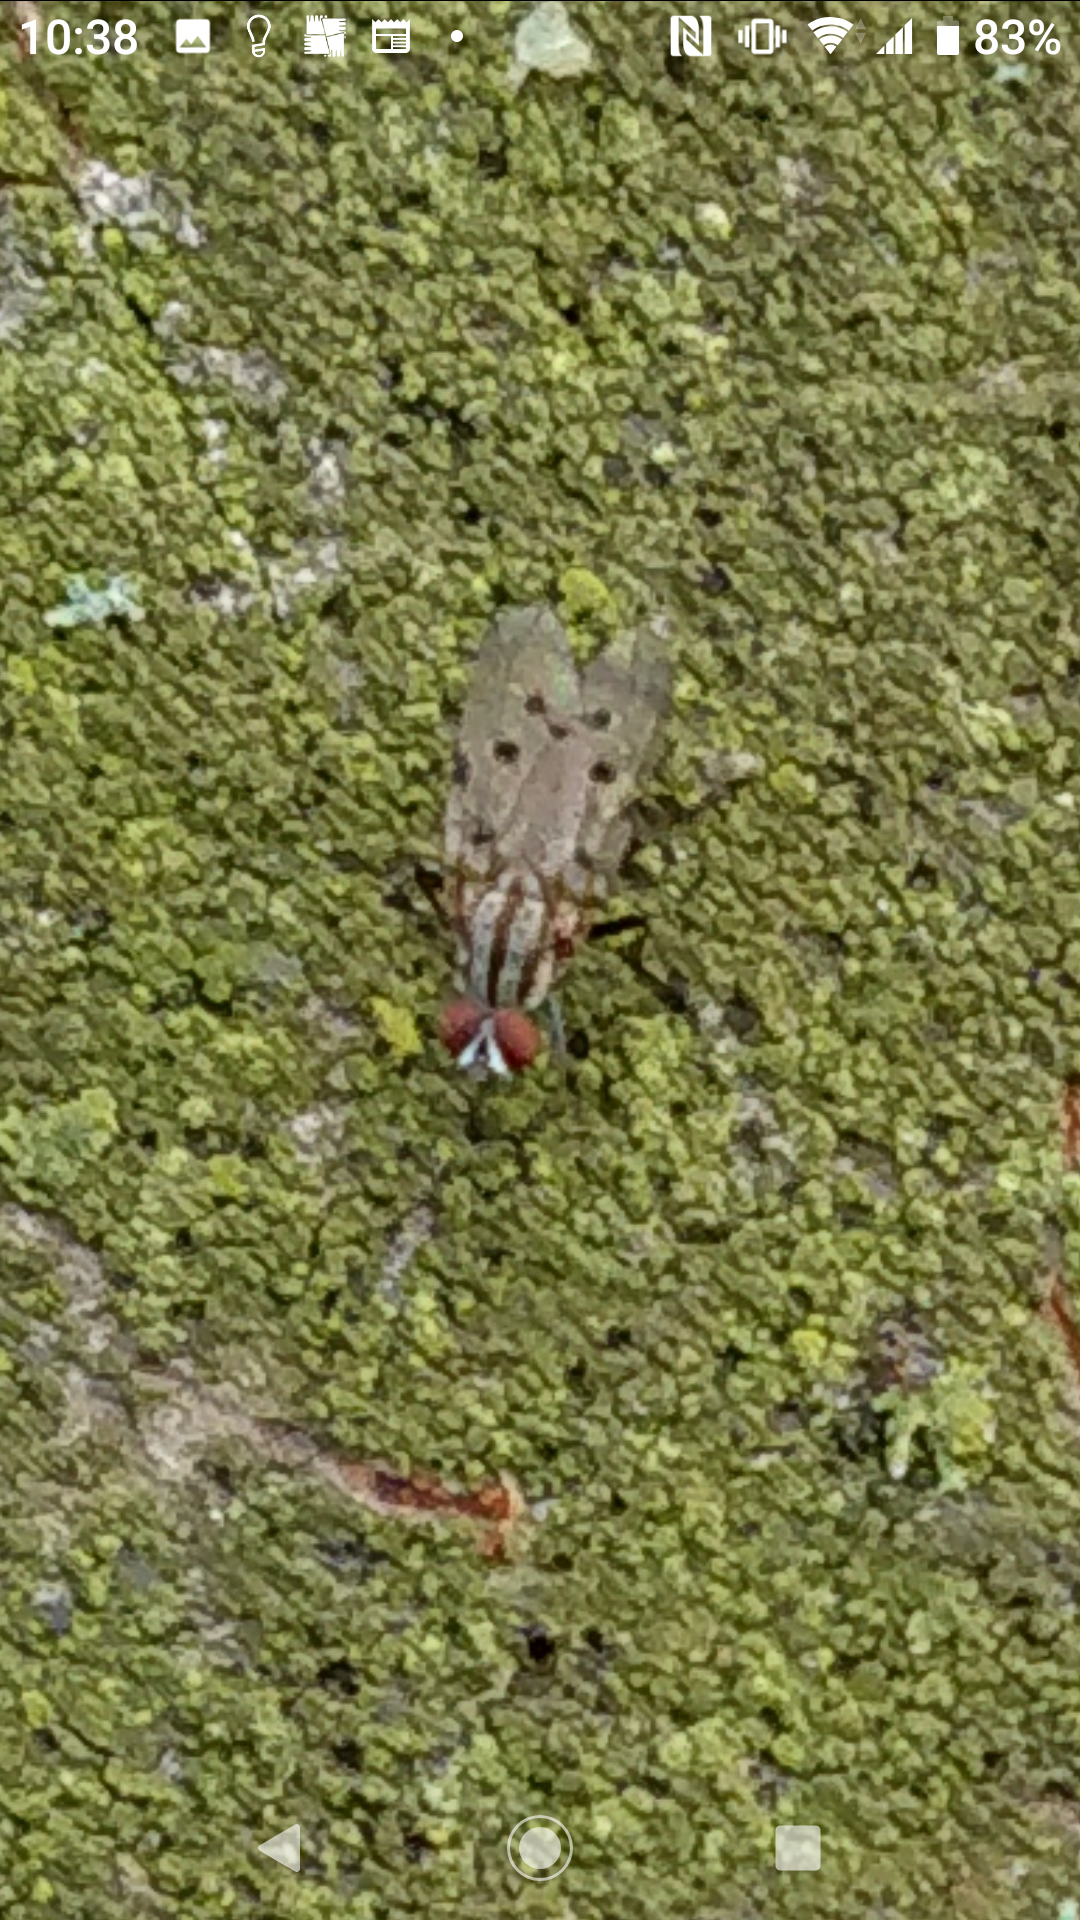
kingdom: Animalia
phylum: Arthropoda
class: Insecta
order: Diptera
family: Anthomyiidae
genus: Anthomyia
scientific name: Anthomyia punctipennis
